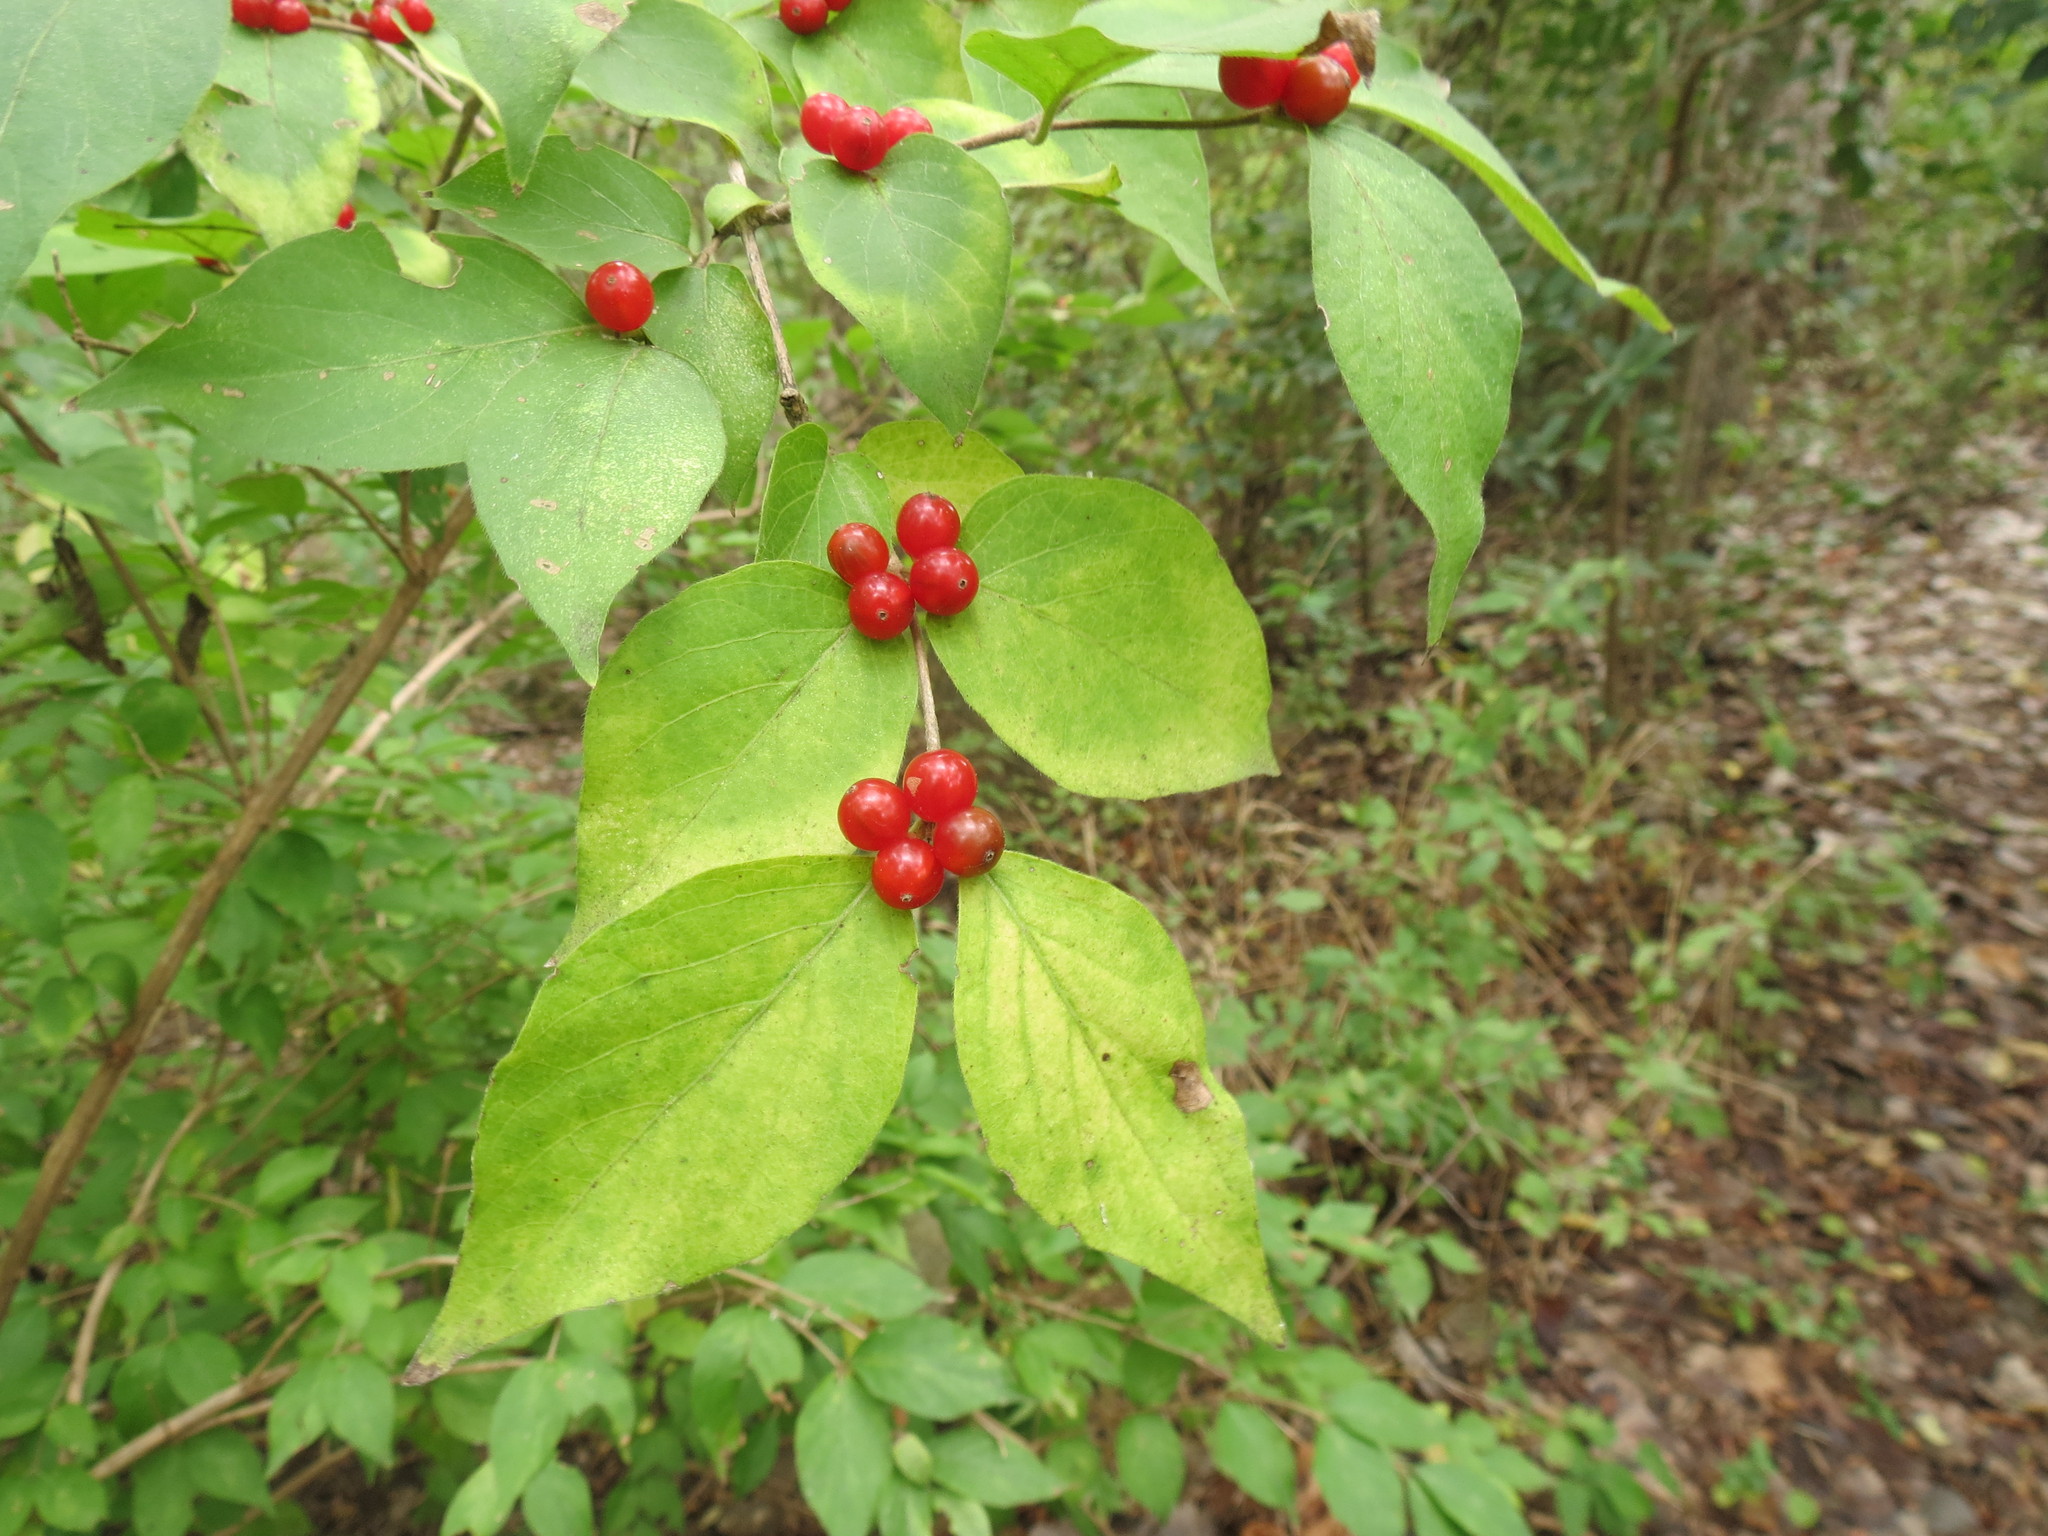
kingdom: Plantae
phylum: Tracheophyta
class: Magnoliopsida
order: Dipsacales
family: Caprifoliaceae
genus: Lonicera
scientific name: Lonicera maackii
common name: Amur honeysuckle
